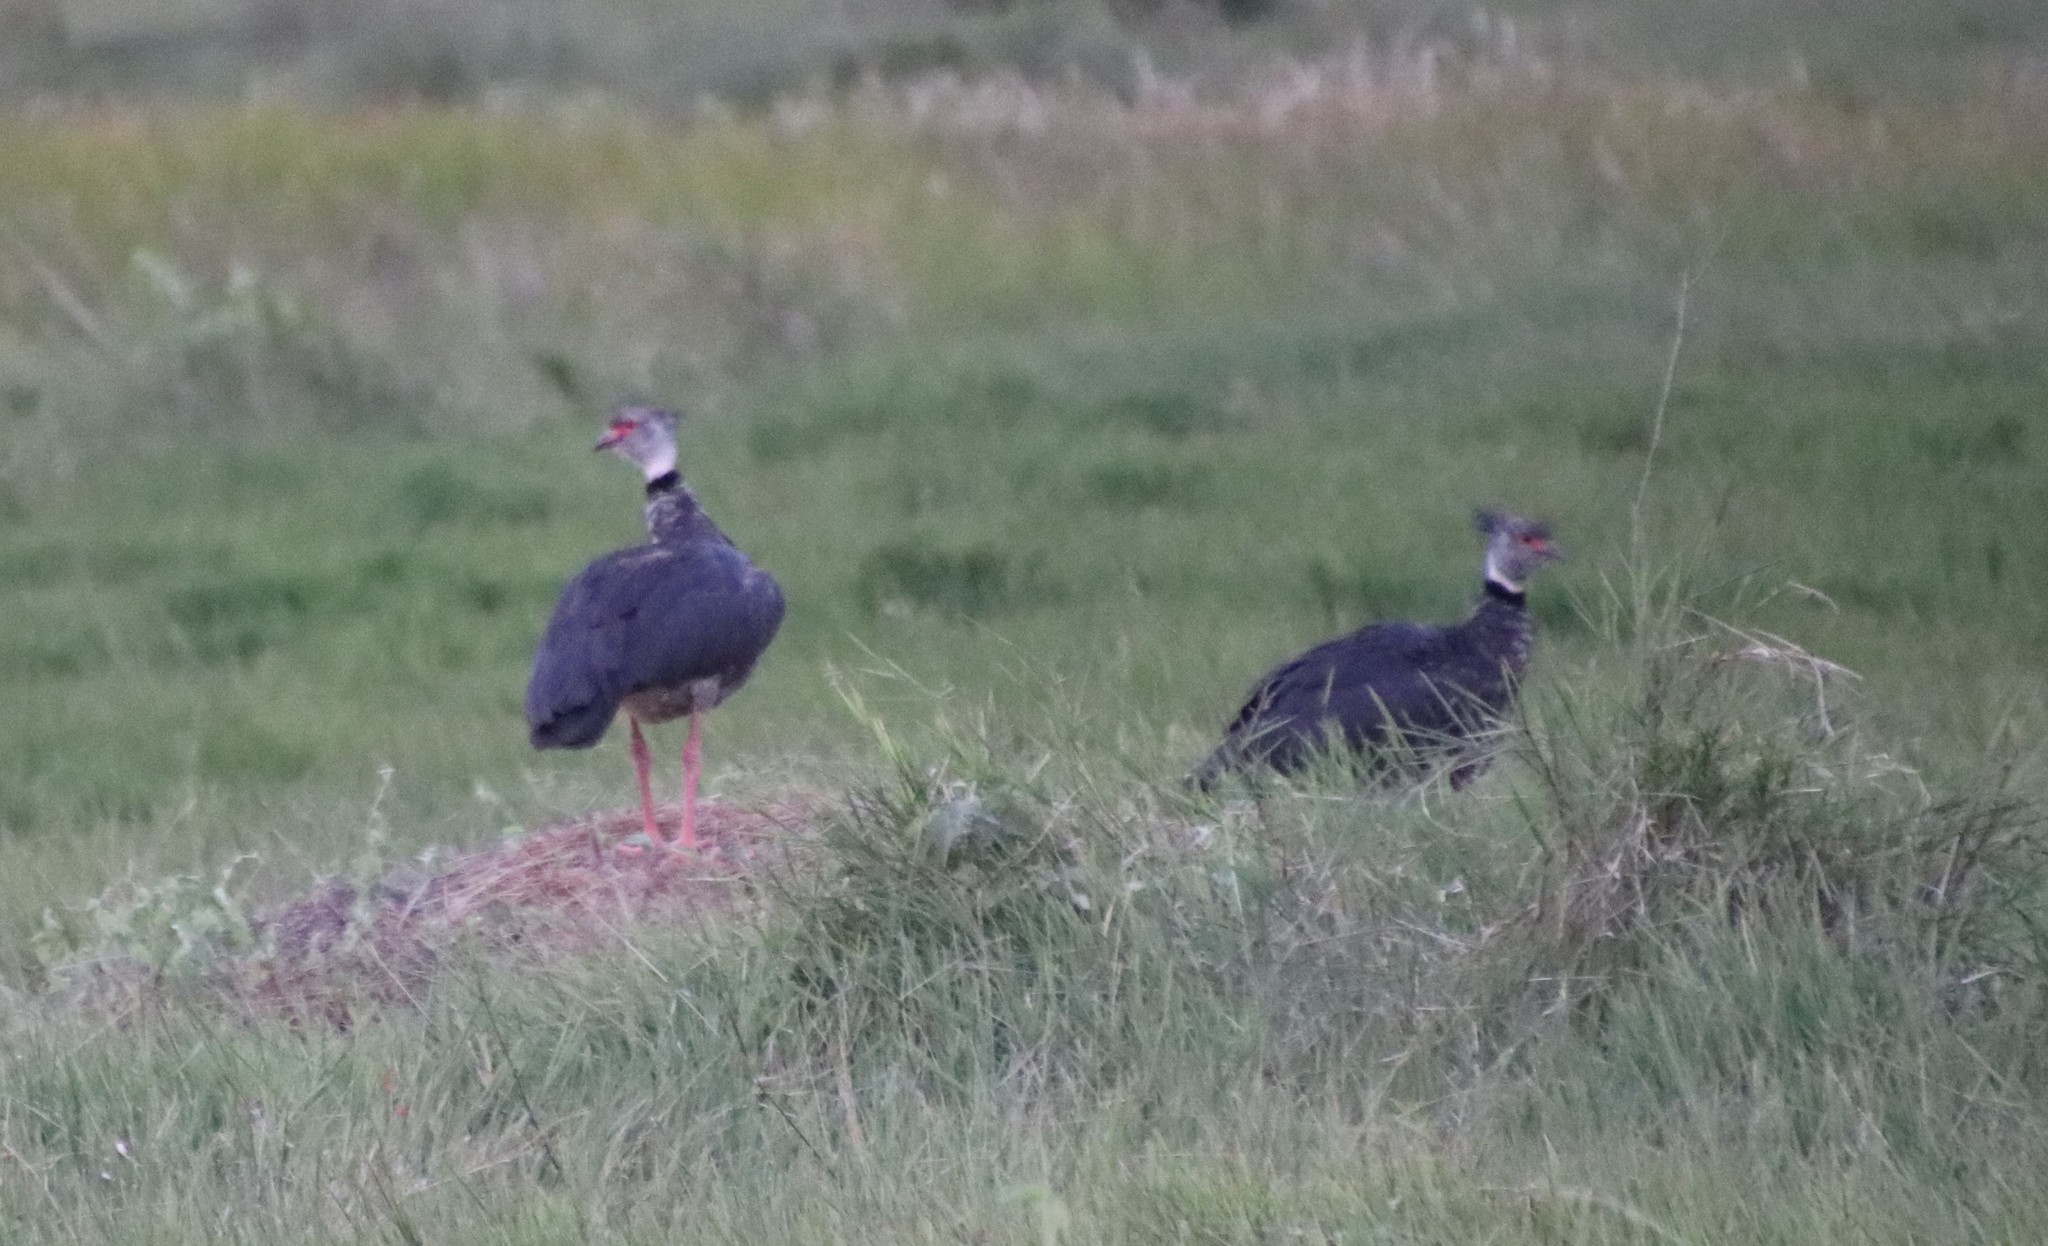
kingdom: Animalia
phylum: Chordata
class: Aves
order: Anseriformes
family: Anhimidae
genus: Chauna
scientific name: Chauna torquata
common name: Southern screamer
